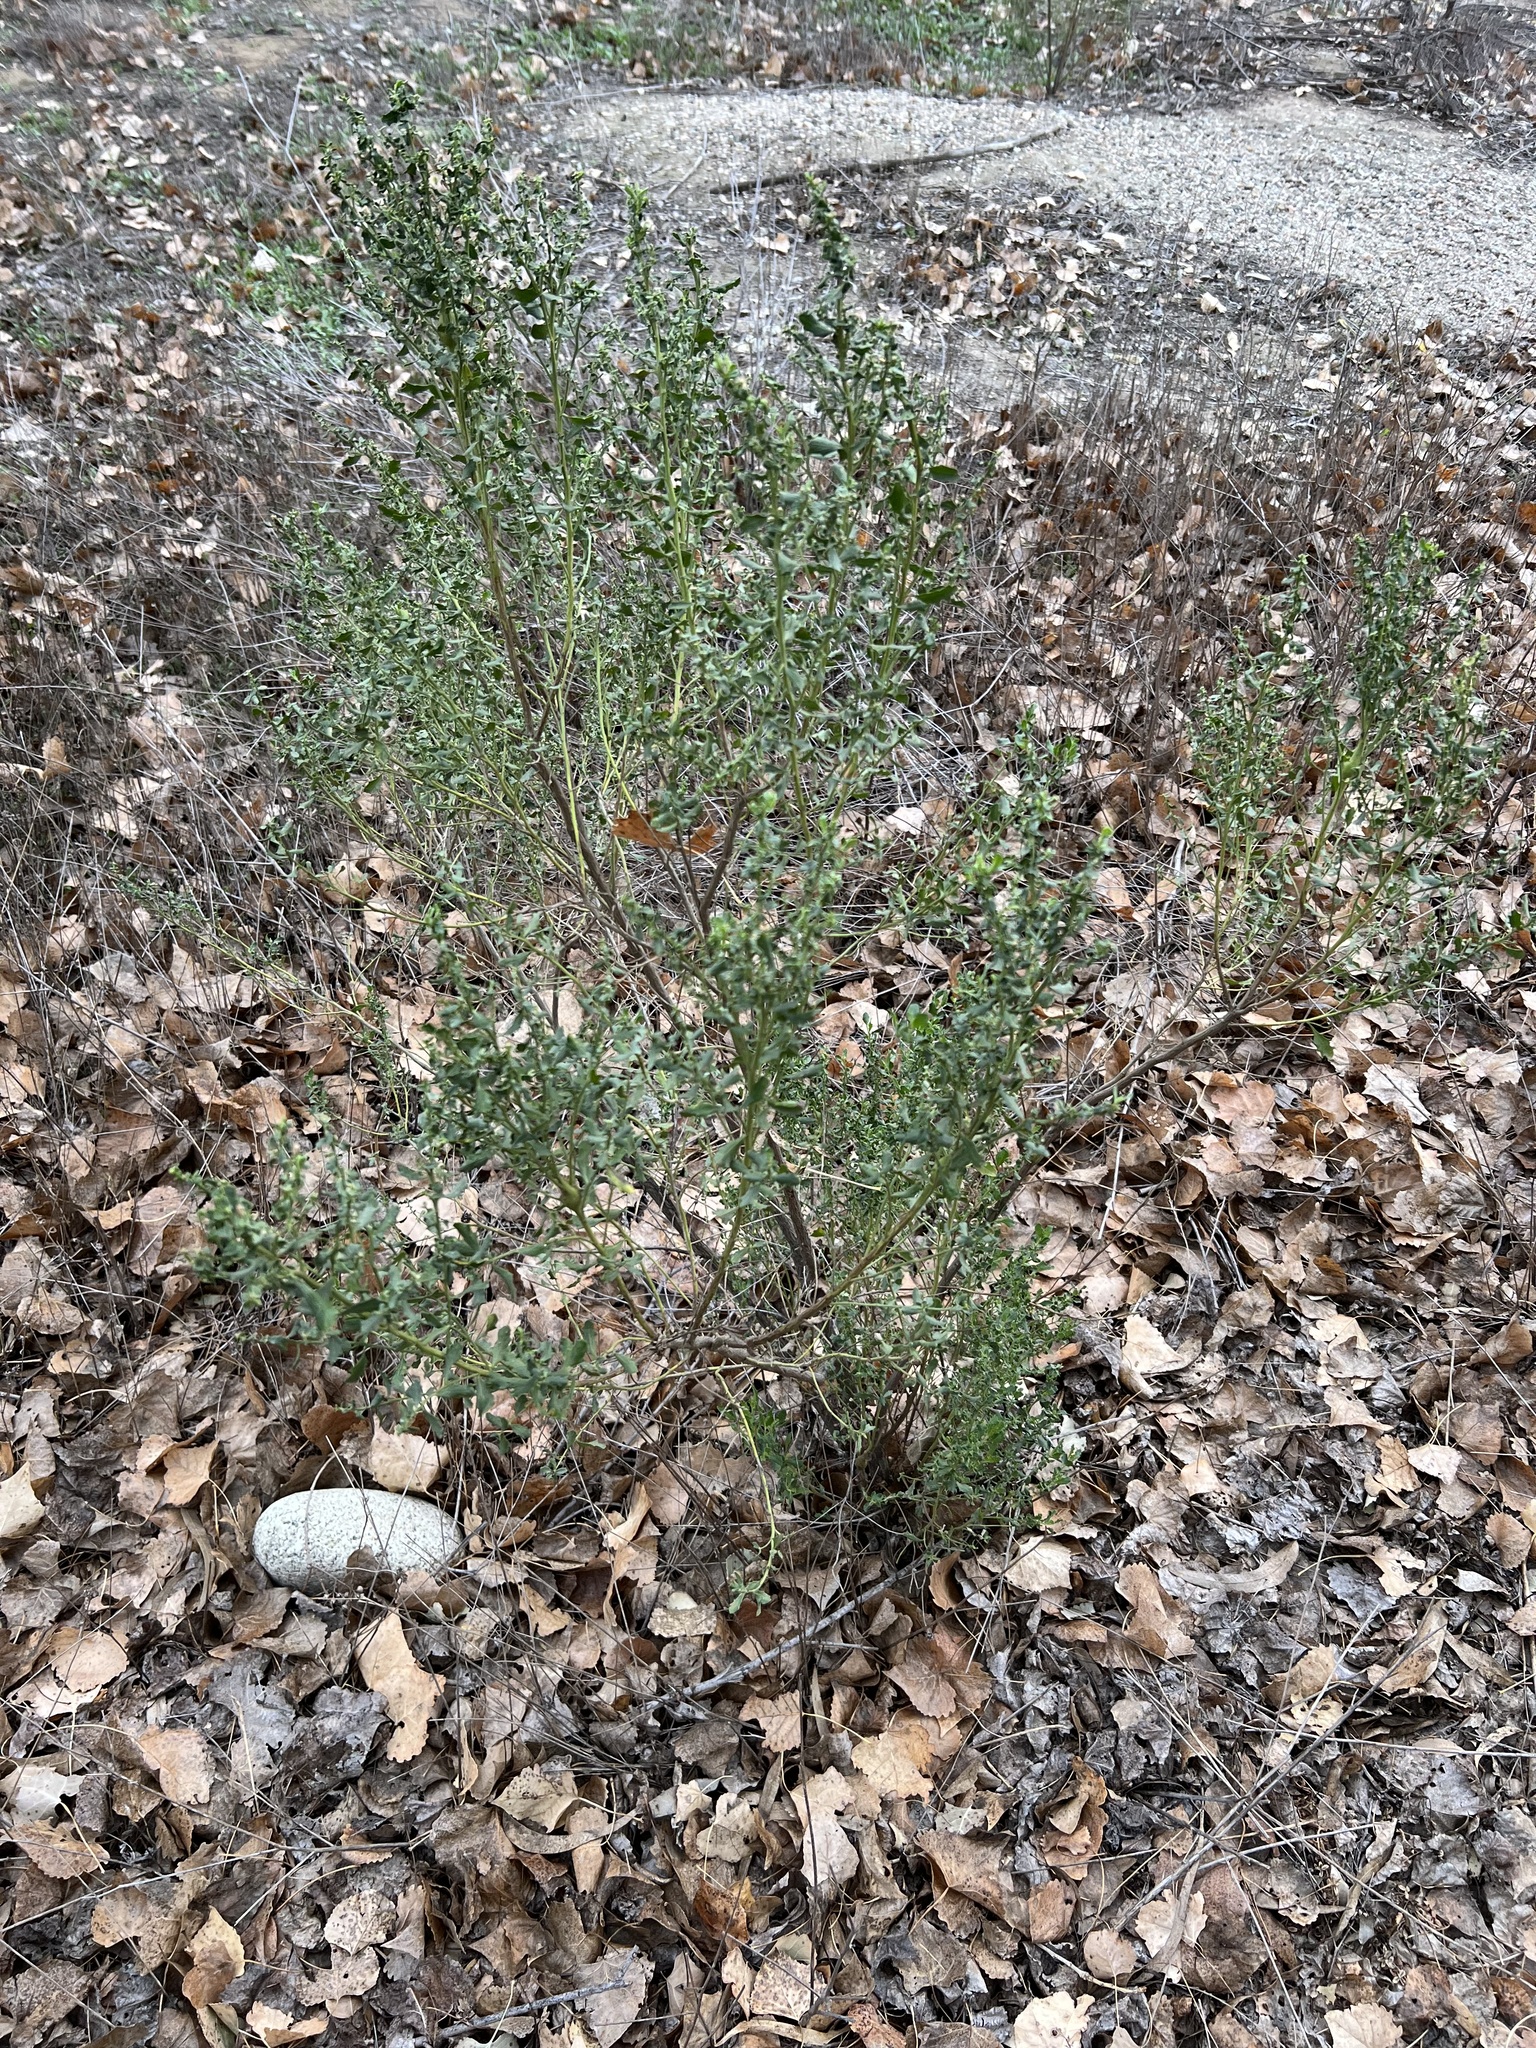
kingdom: Plantae
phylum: Tracheophyta
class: Magnoliopsida
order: Asterales
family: Asteraceae
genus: Baccharis
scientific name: Baccharis pilularis
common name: Coyotebrush
